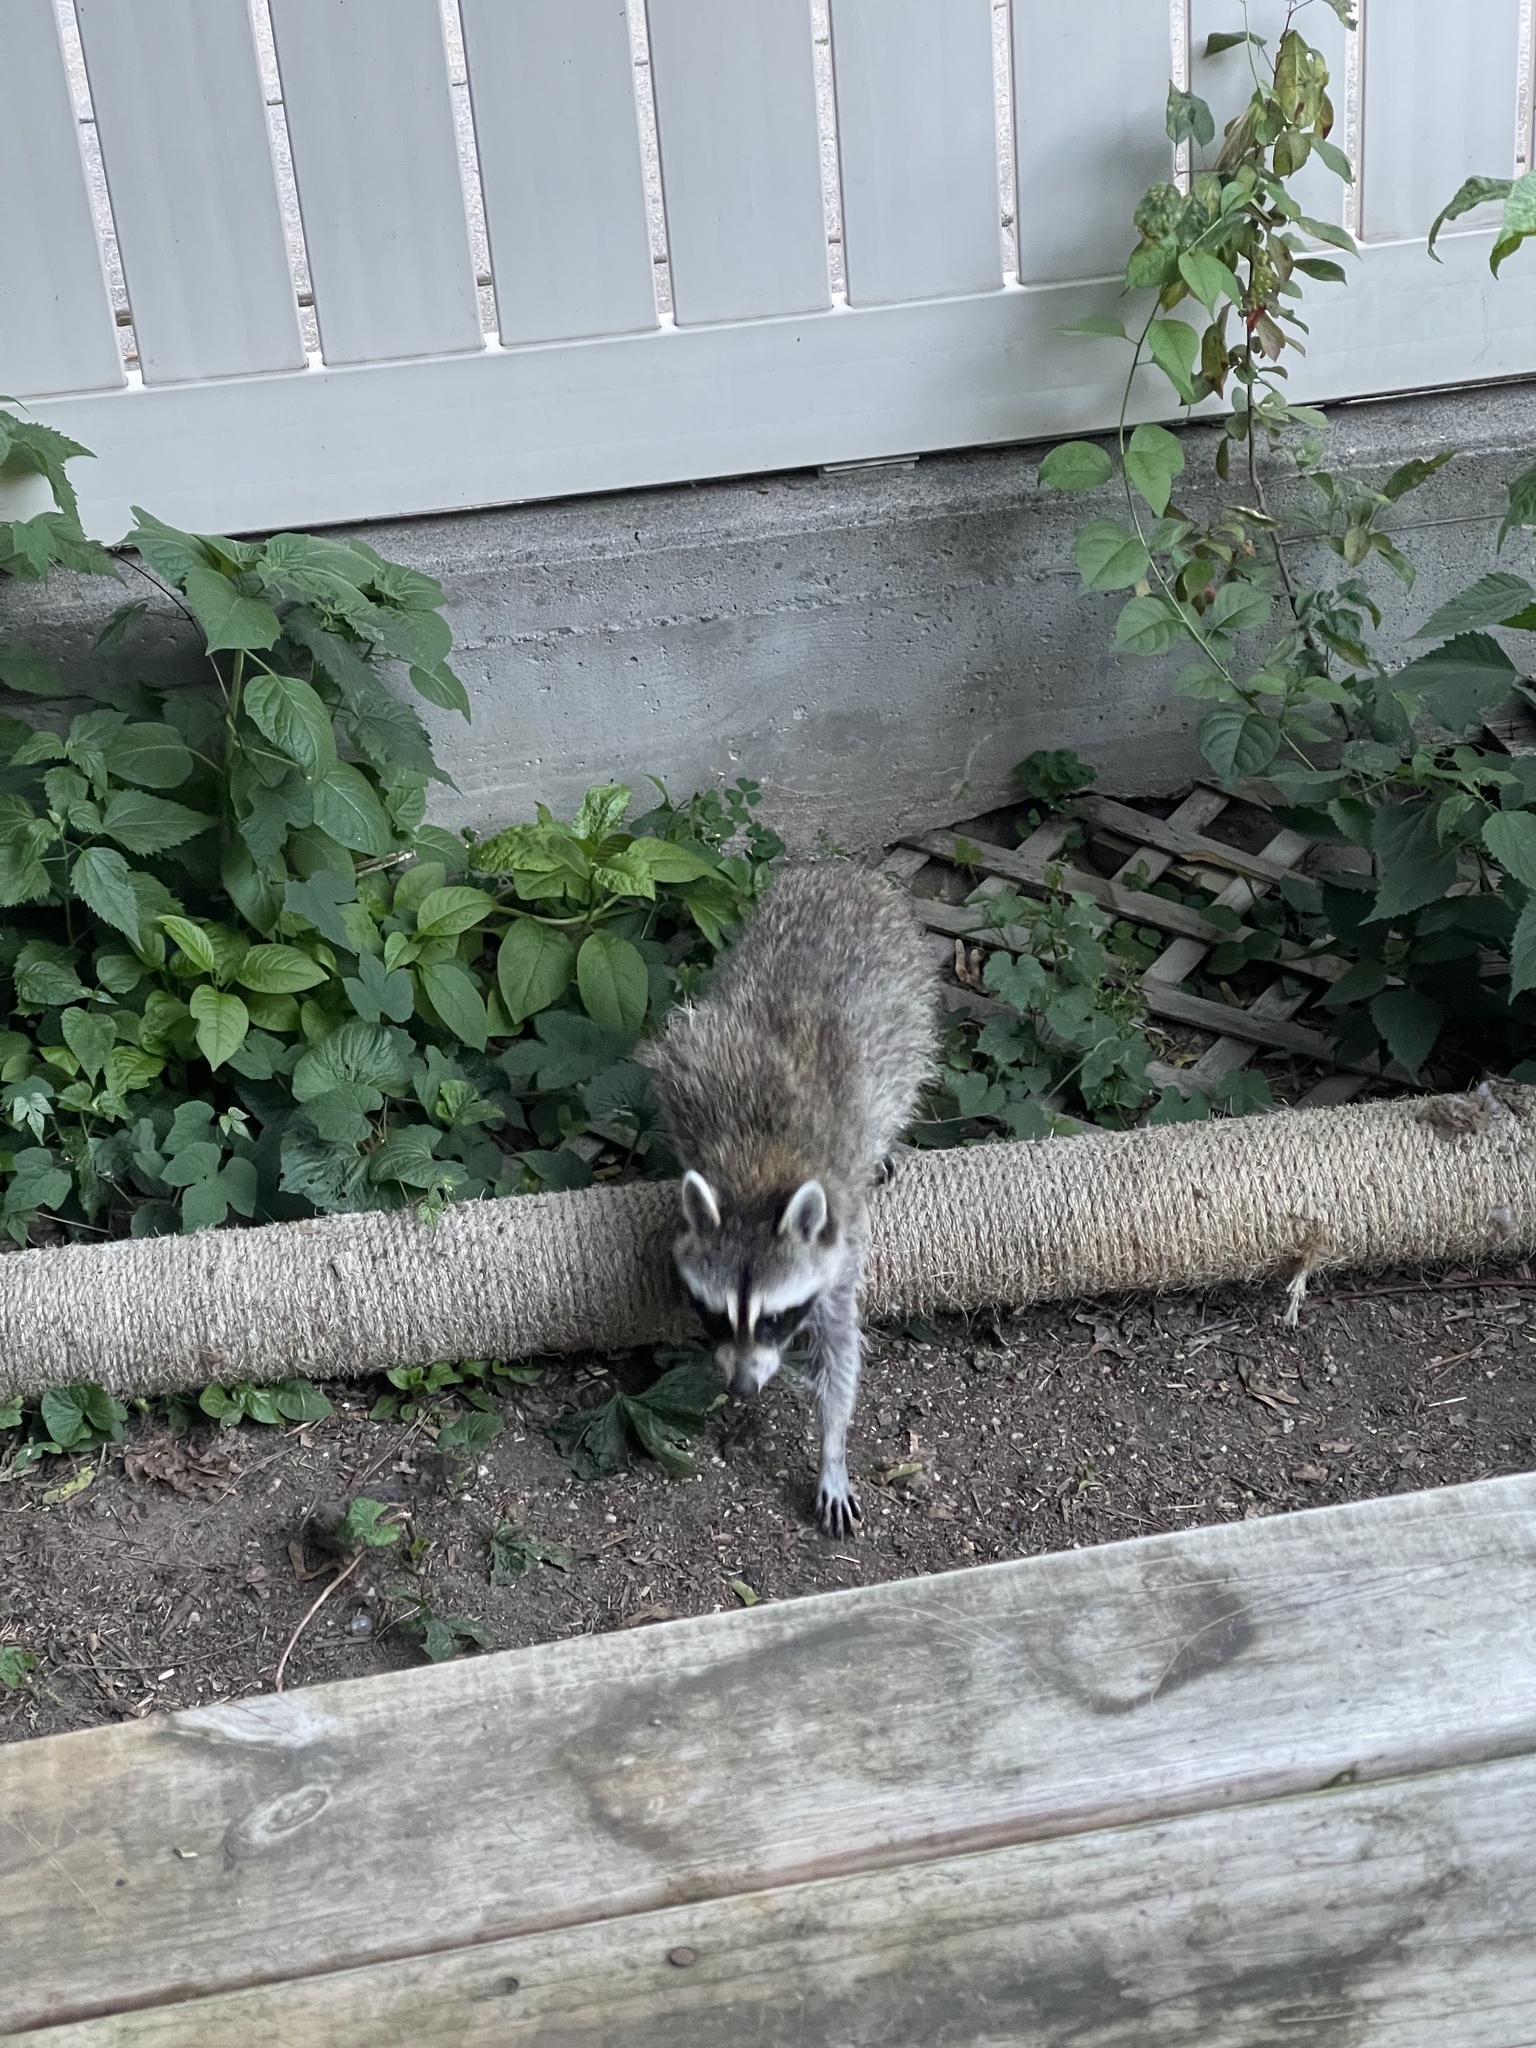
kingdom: Animalia
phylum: Chordata
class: Mammalia
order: Carnivora
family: Procyonidae
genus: Procyon
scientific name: Procyon lotor
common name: Raccoon
